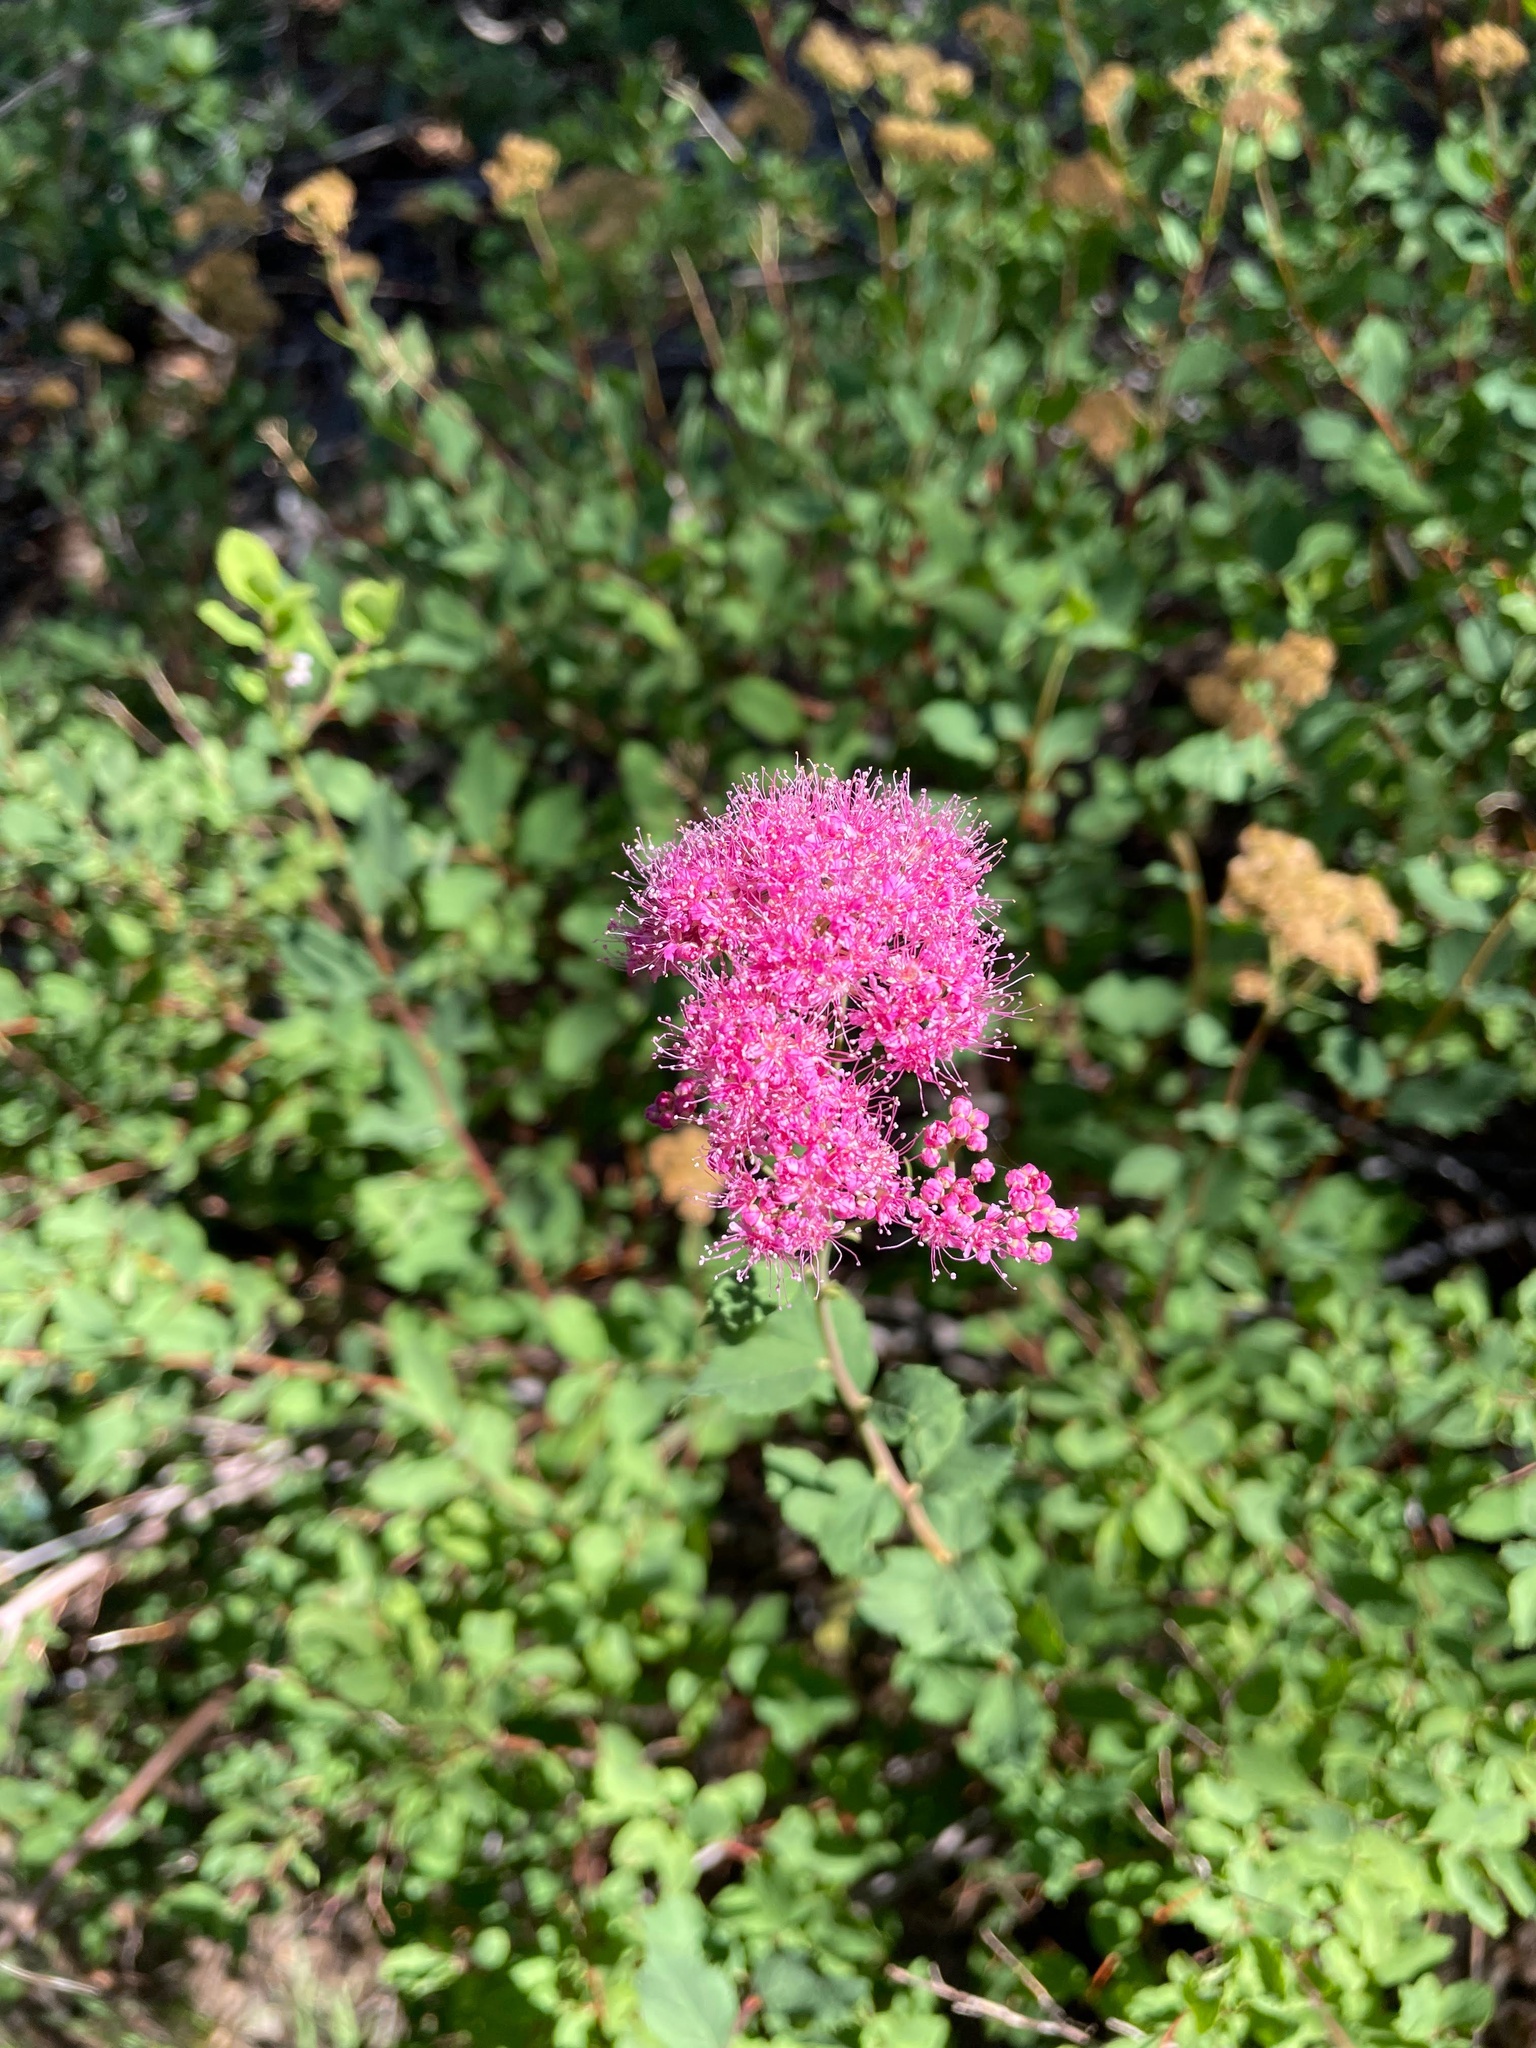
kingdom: Plantae
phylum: Tracheophyta
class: Magnoliopsida
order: Rosales
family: Rosaceae
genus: Spiraea
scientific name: Spiraea splendens
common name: Subalpine meadowsweet
